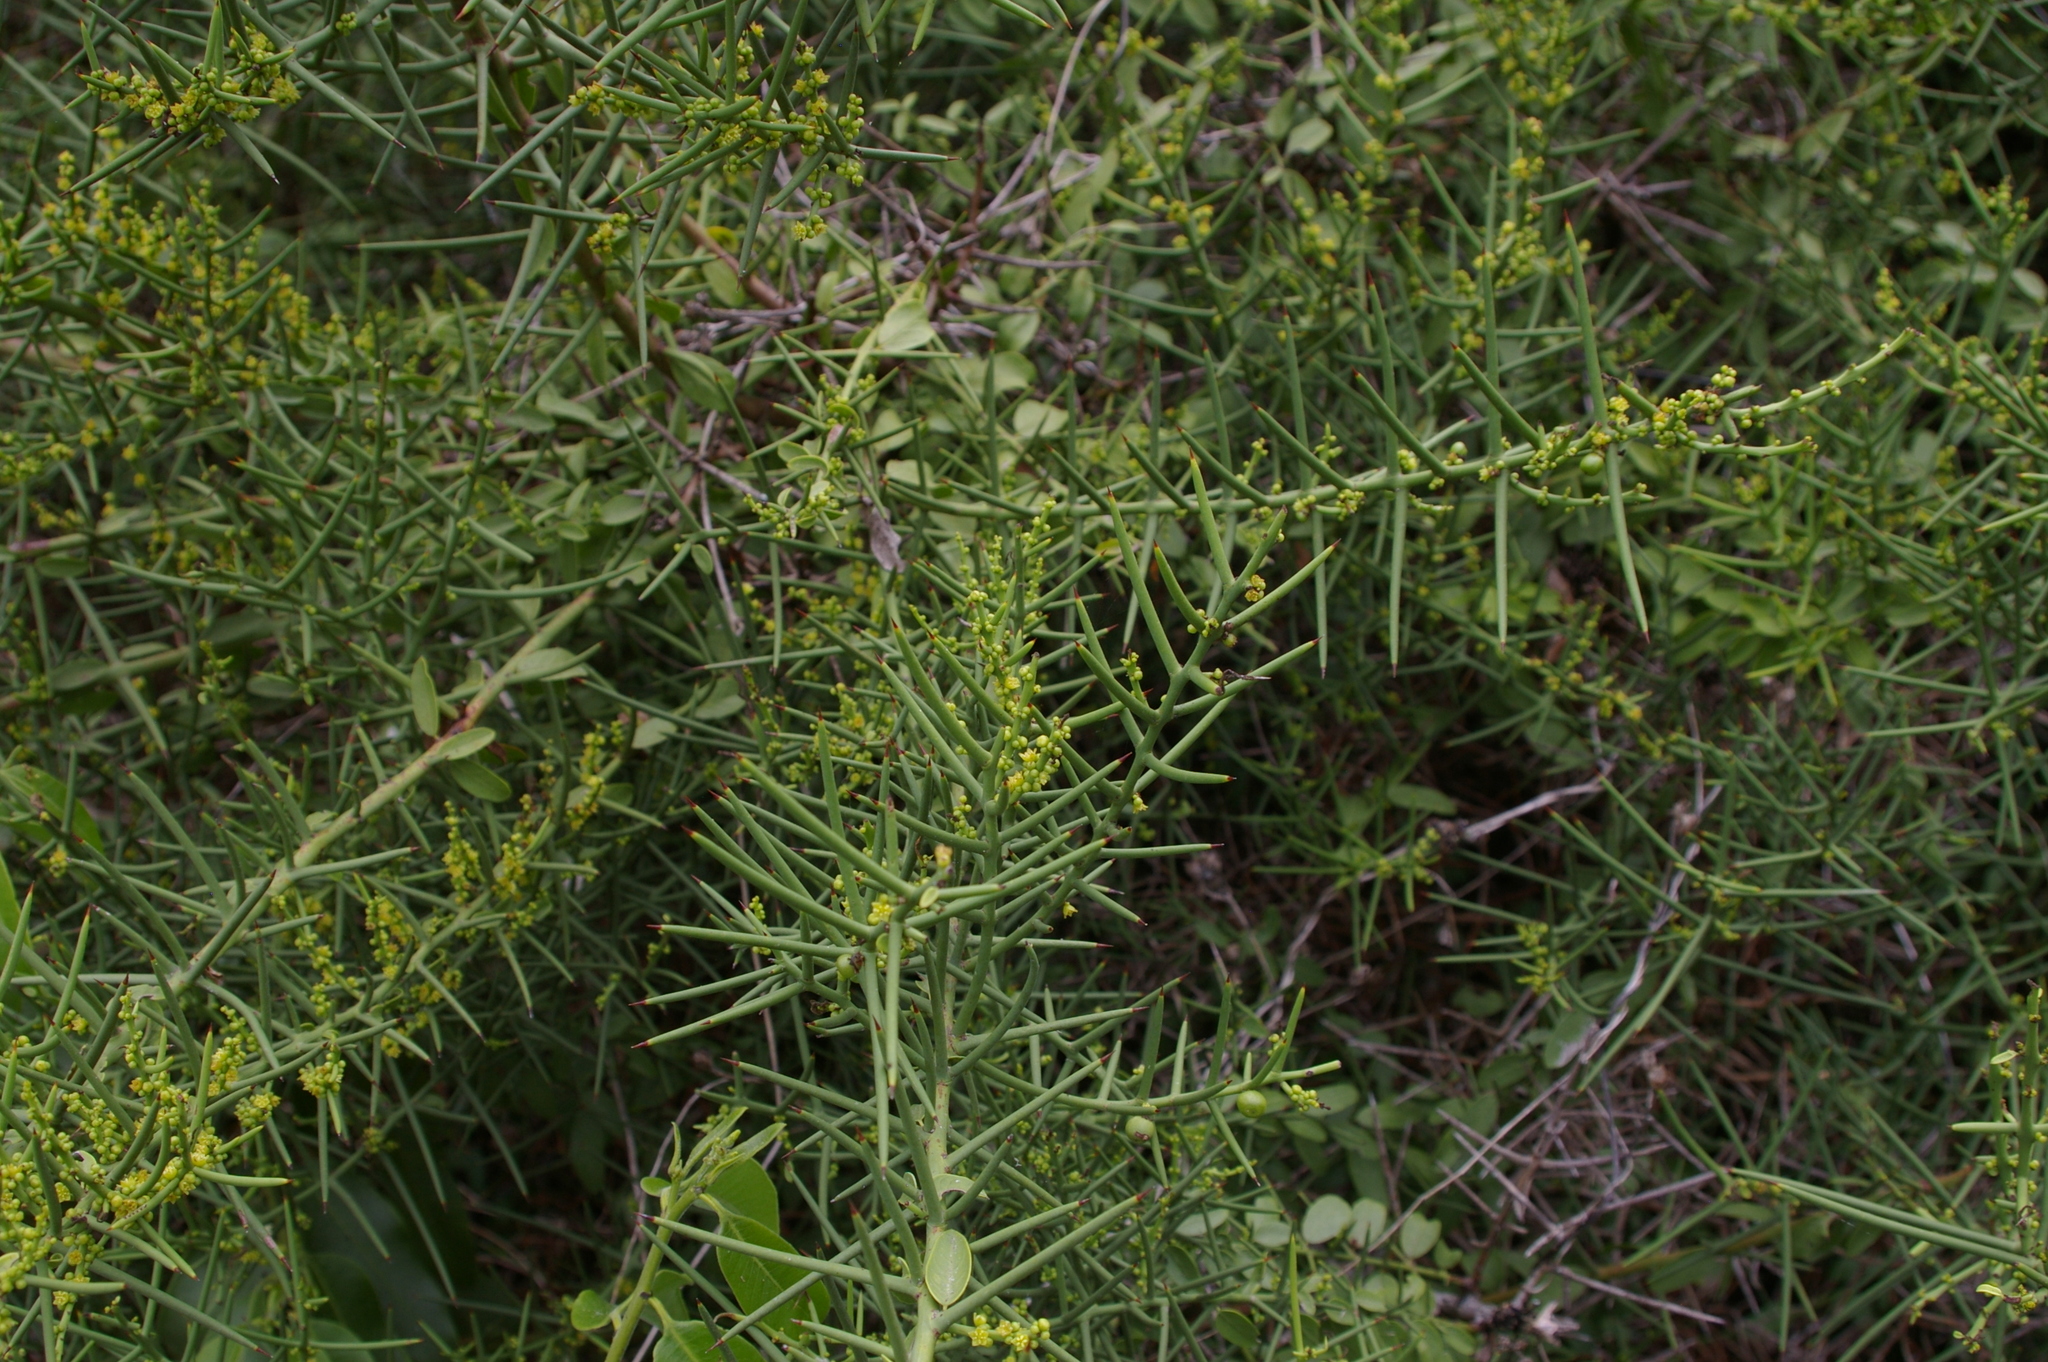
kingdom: Plantae
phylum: Tracheophyta
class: Magnoliopsida
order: Rosales
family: Rhamnaceae
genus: Scutia
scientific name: Scutia spicata
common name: Spiny bush
